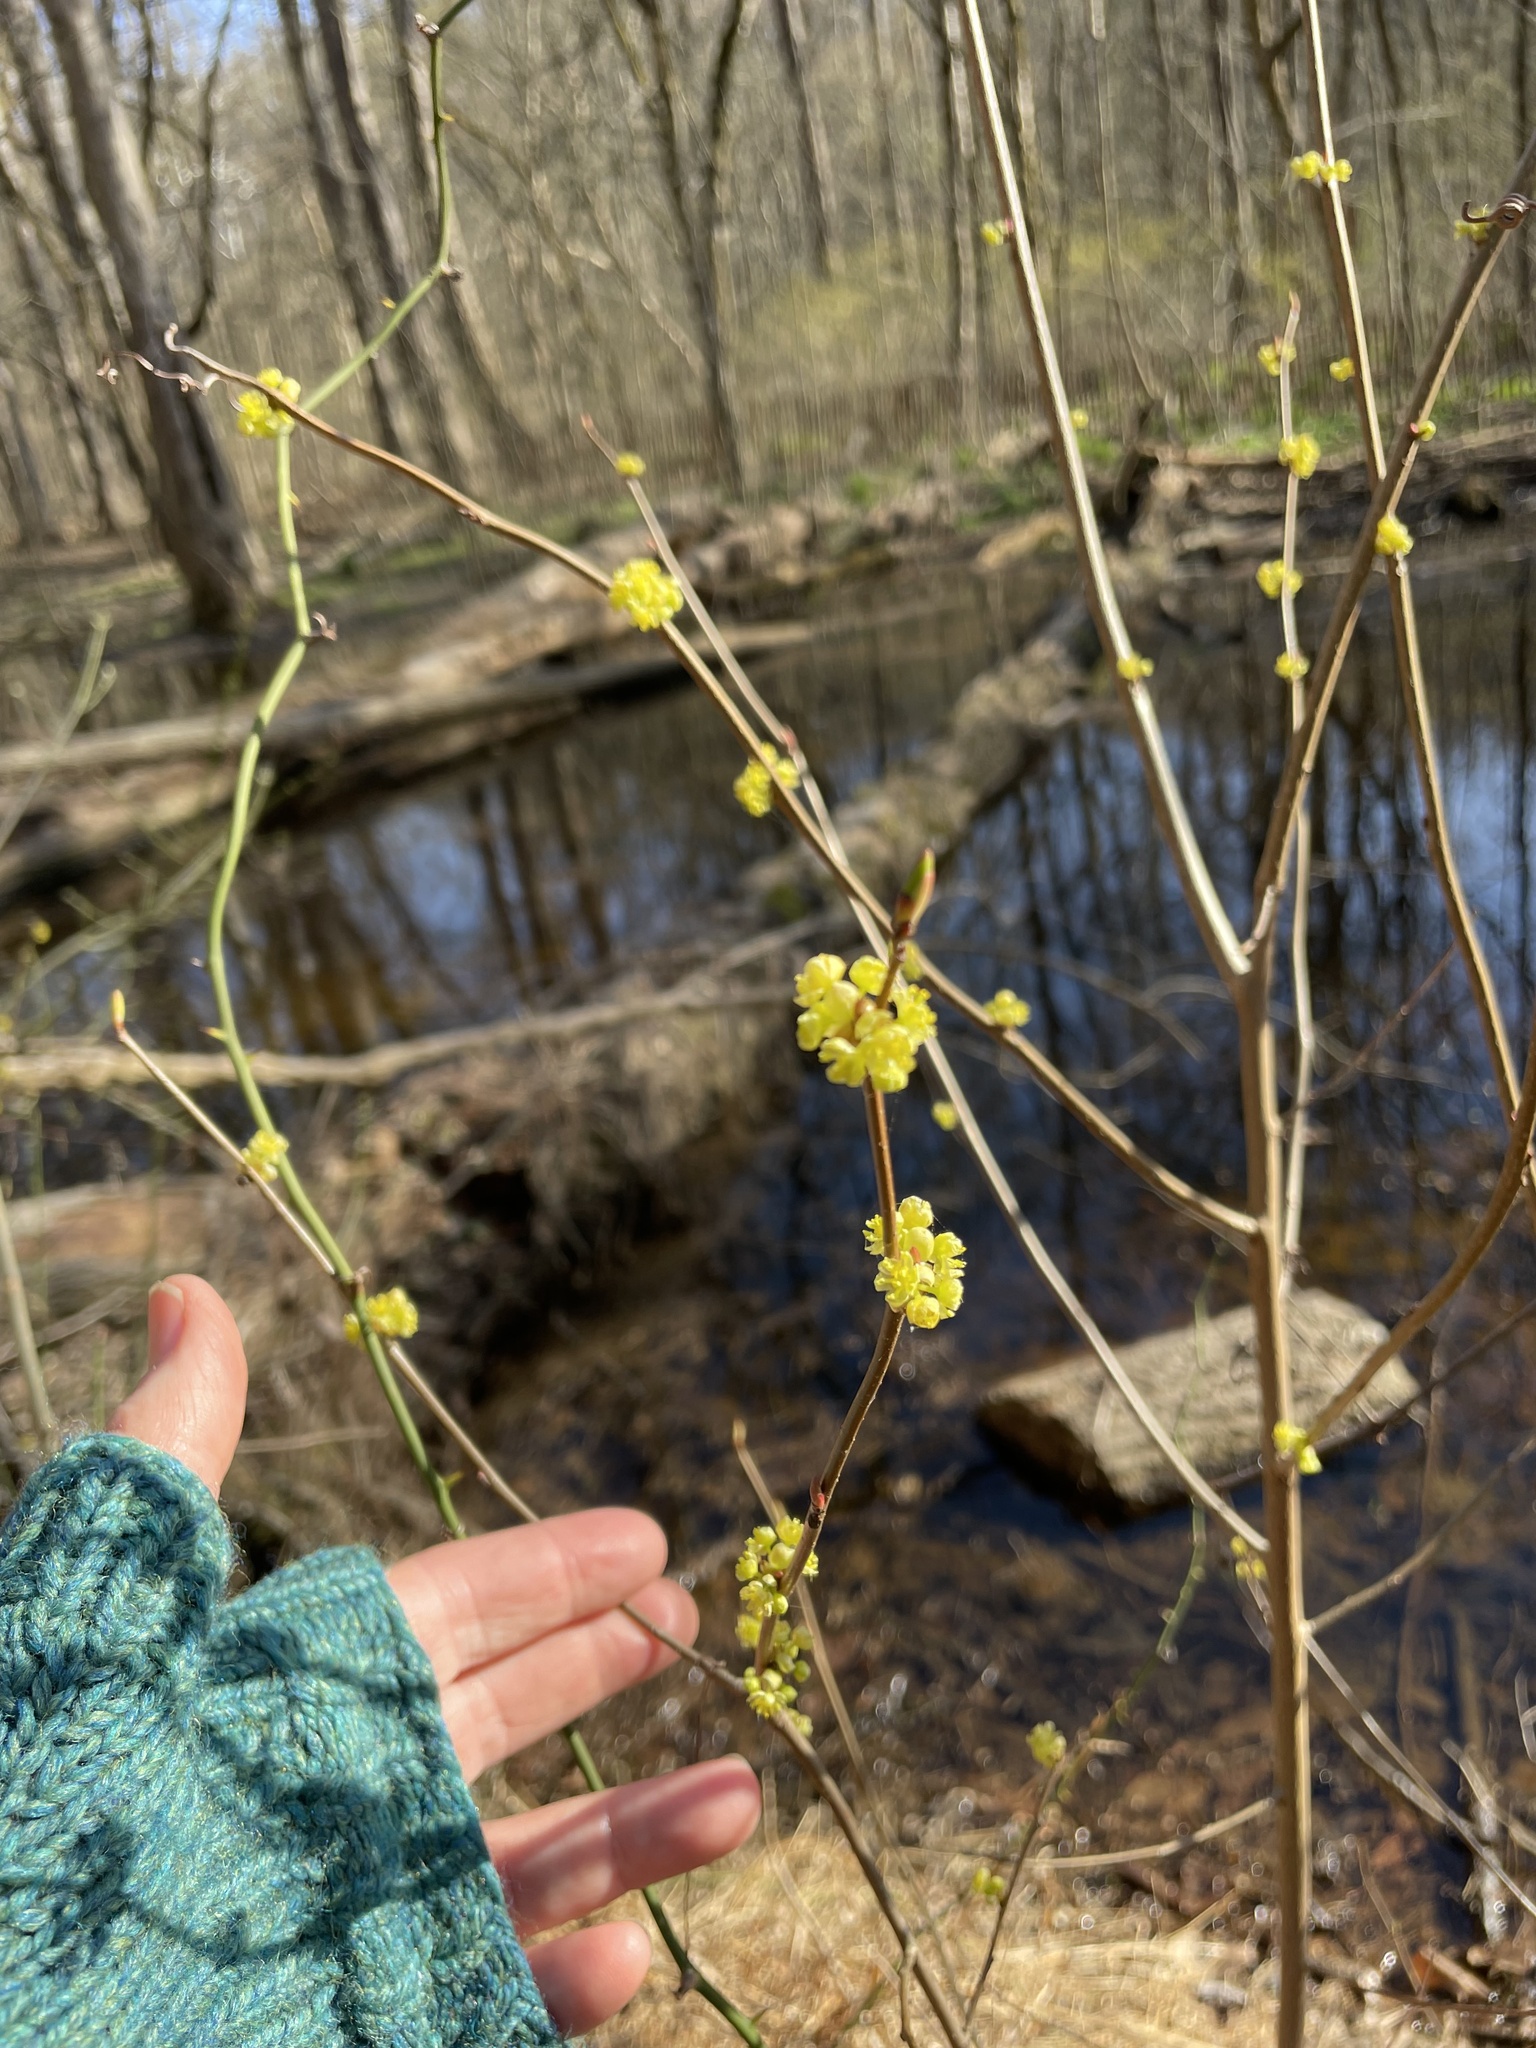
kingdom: Plantae
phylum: Tracheophyta
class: Magnoliopsida
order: Laurales
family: Lauraceae
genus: Lindera
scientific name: Lindera benzoin
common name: Spicebush
